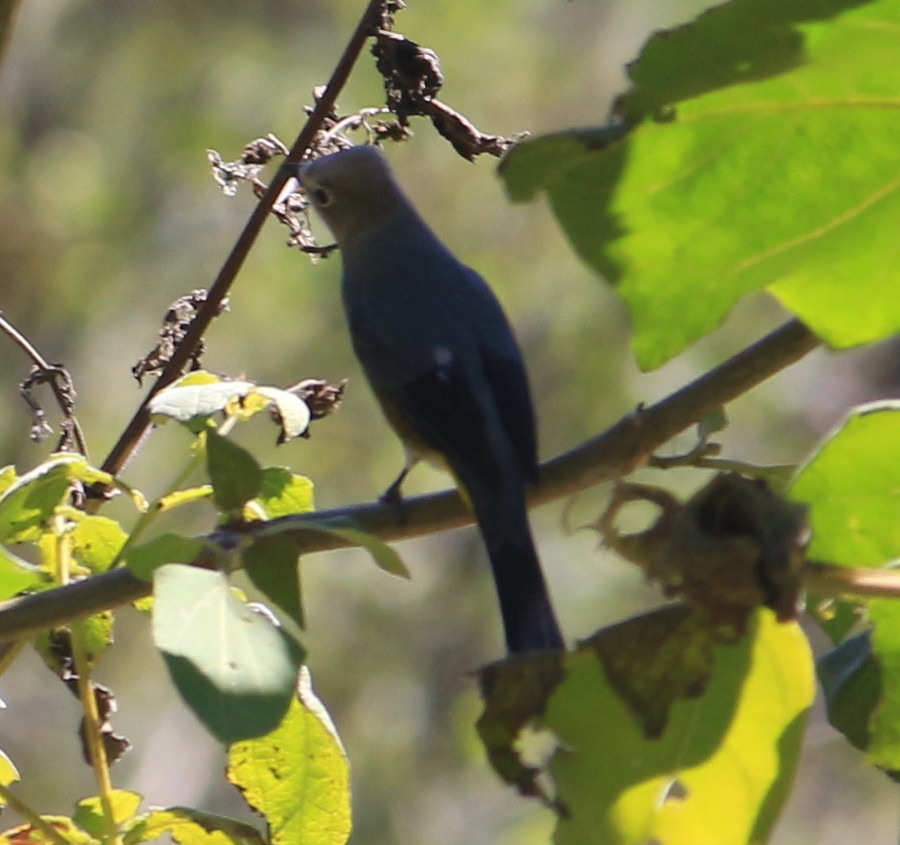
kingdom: Animalia
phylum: Chordata
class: Aves
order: Passeriformes
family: Ptilogonatidae
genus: Ptilogonys
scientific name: Ptilogonys cinereus
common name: Gray silky-flycatcher
